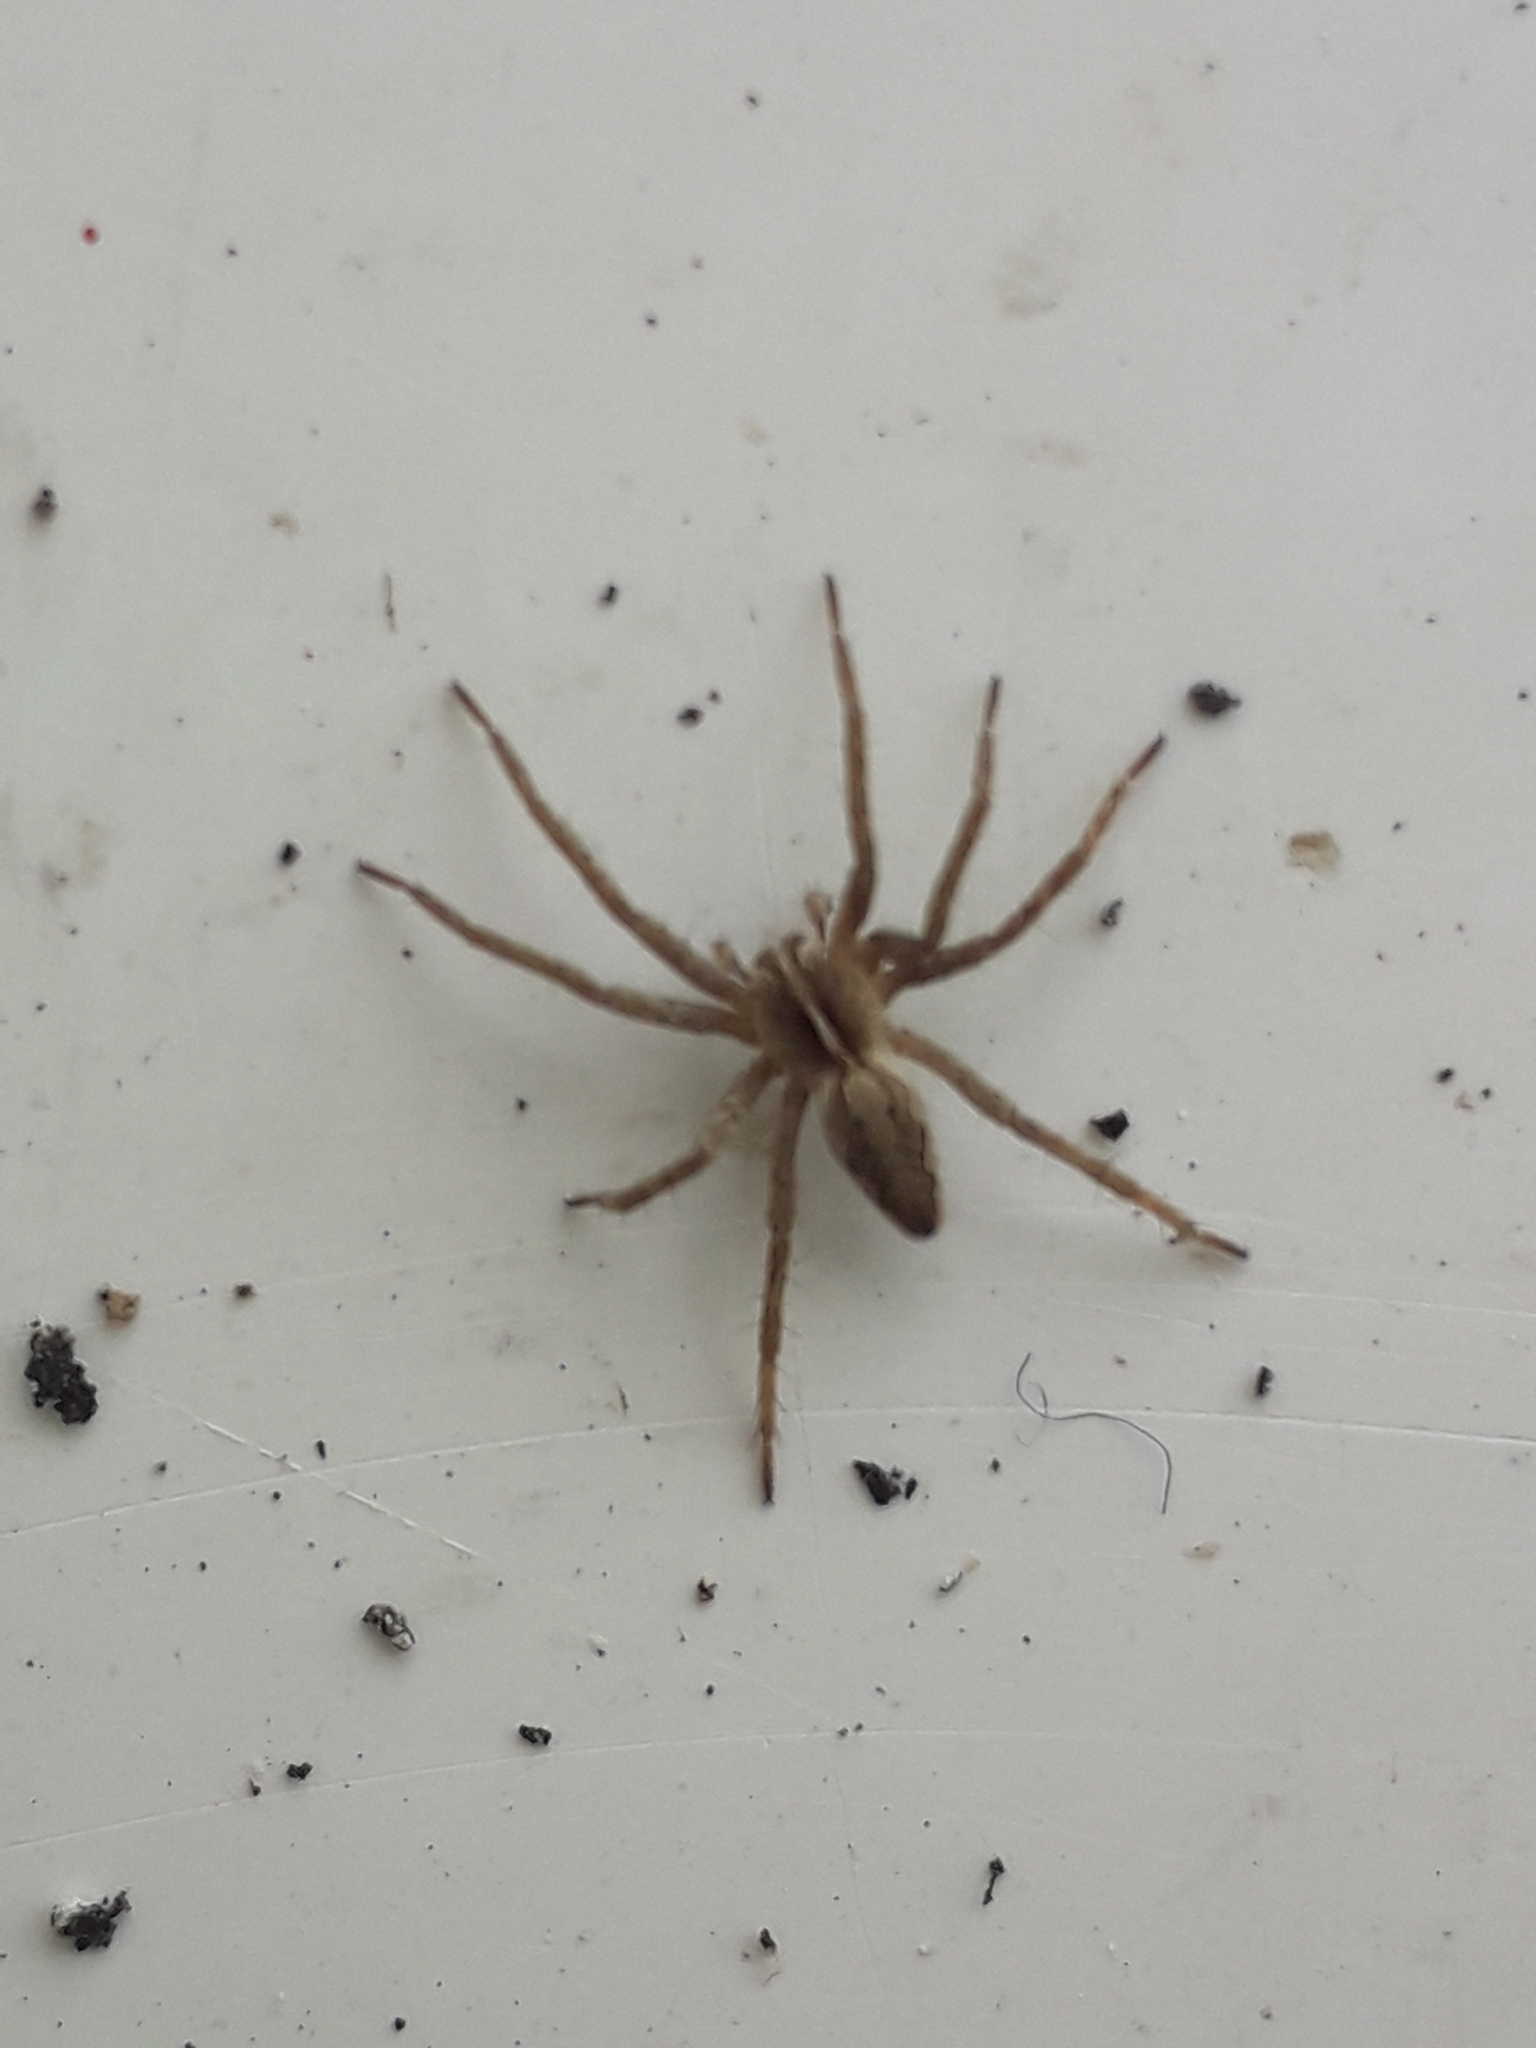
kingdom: Animalia
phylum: Arthropoda
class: Arachnida
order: Araneae
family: Pisauridae
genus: Pisaura
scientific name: Pisaura mirabilis
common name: Tent spider
